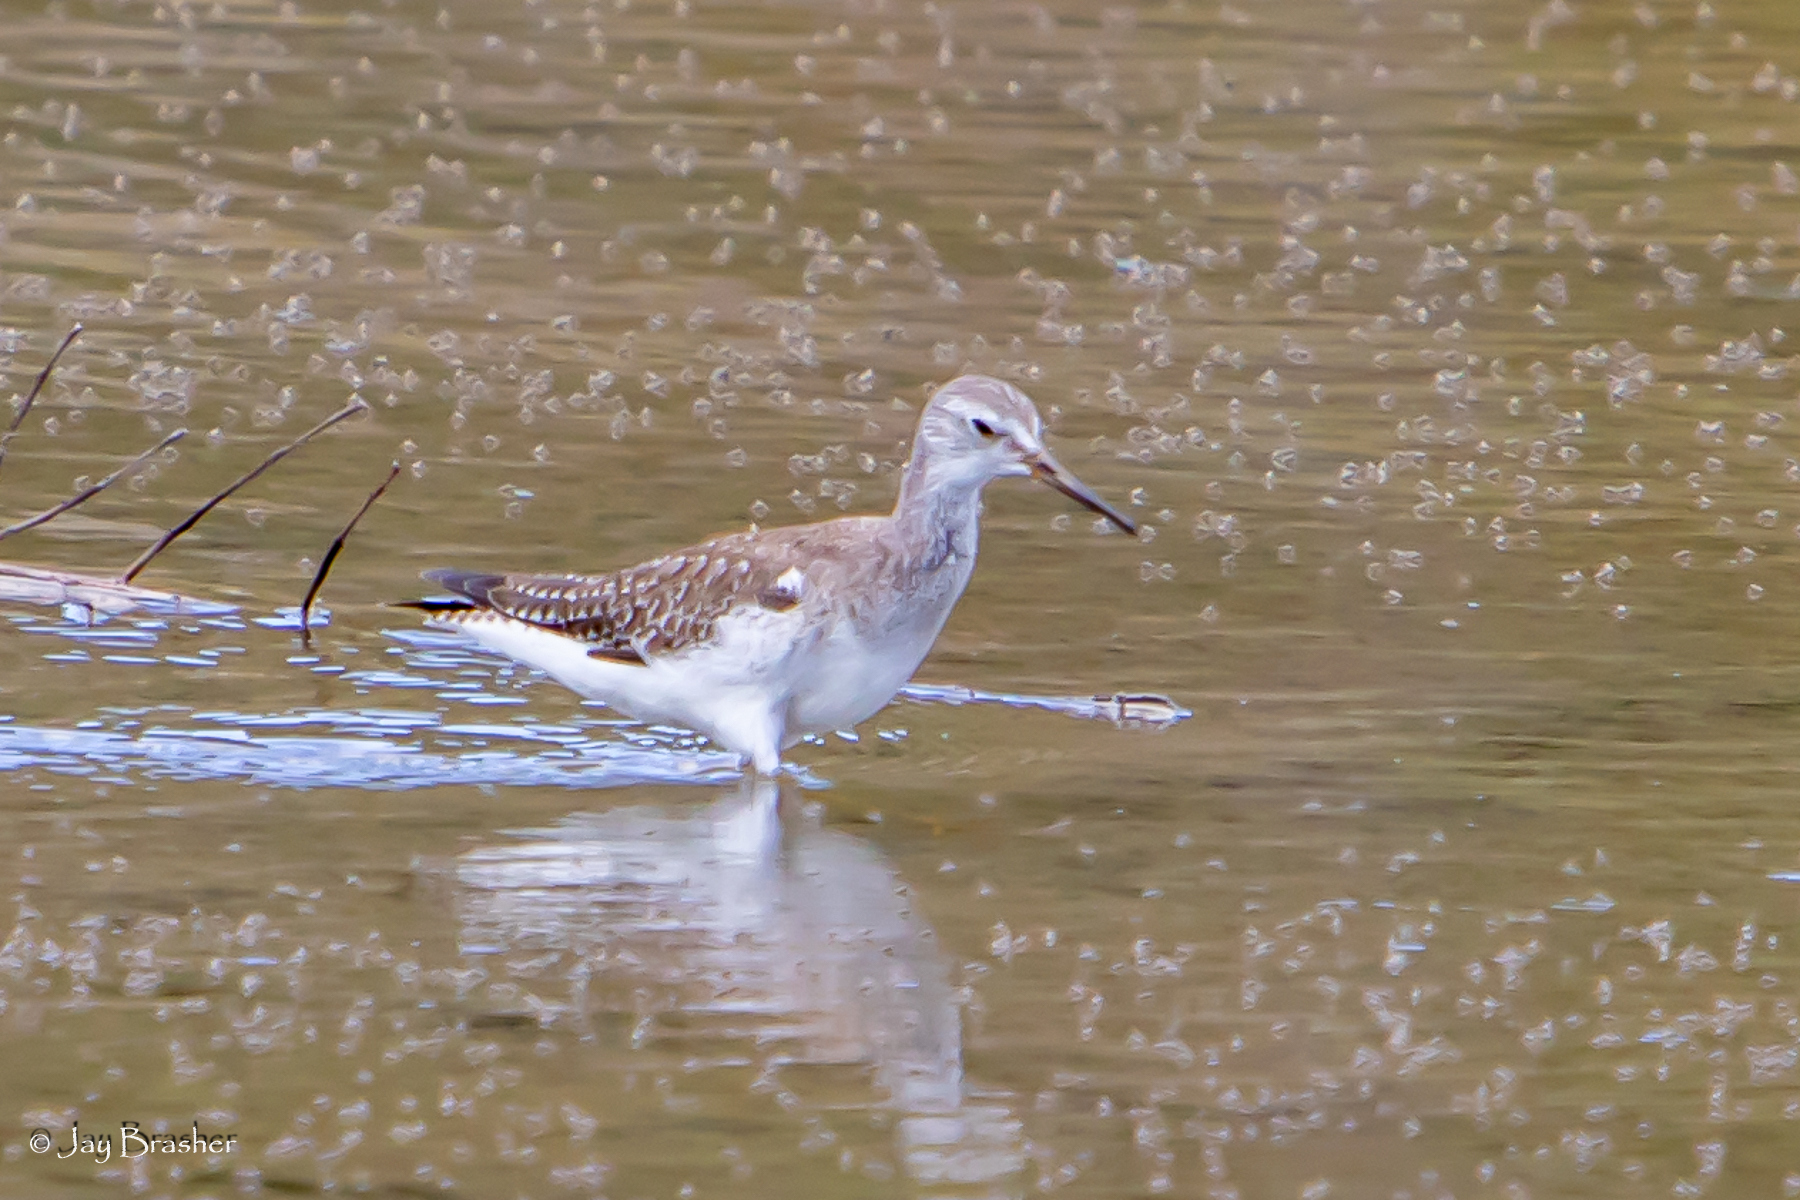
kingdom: Animalia
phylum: Chordata
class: Aves
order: Charadriiformes
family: Scolopacidae
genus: Tringa
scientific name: Tringa melanoleuca
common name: Greater yellowlegs
